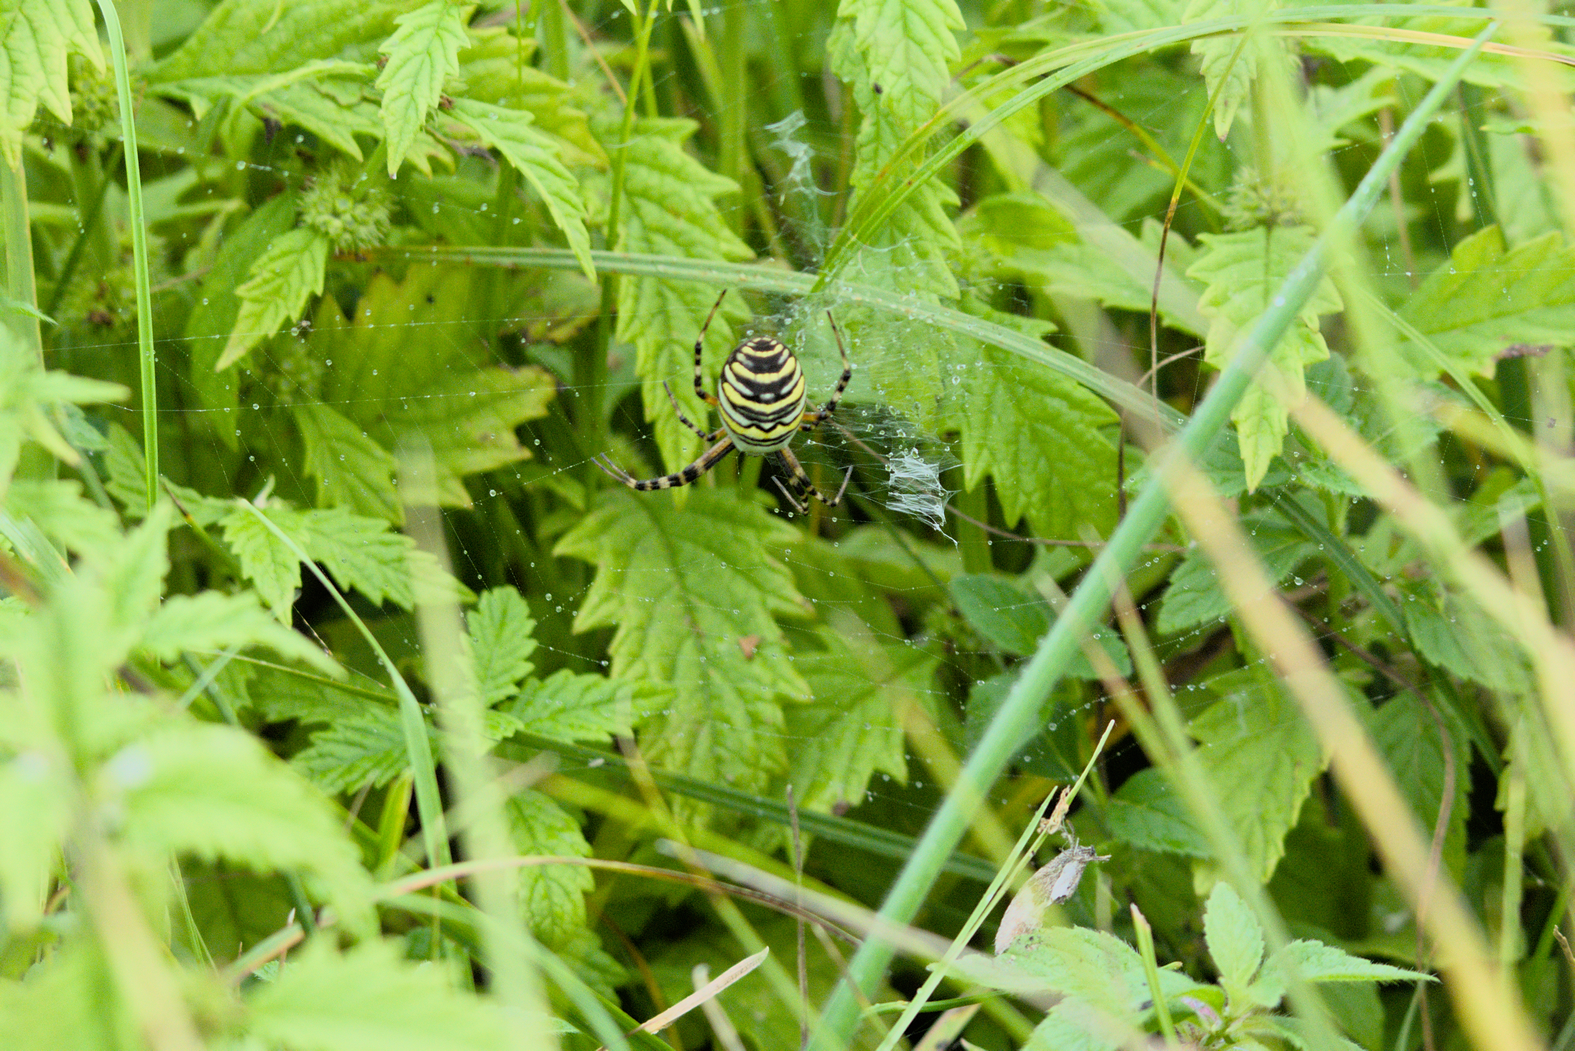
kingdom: Animalia
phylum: Arthropoda
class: Arachnida
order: Araneae
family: Araneidae
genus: Argiope
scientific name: Argiope bruennichi
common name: Wasp spider
